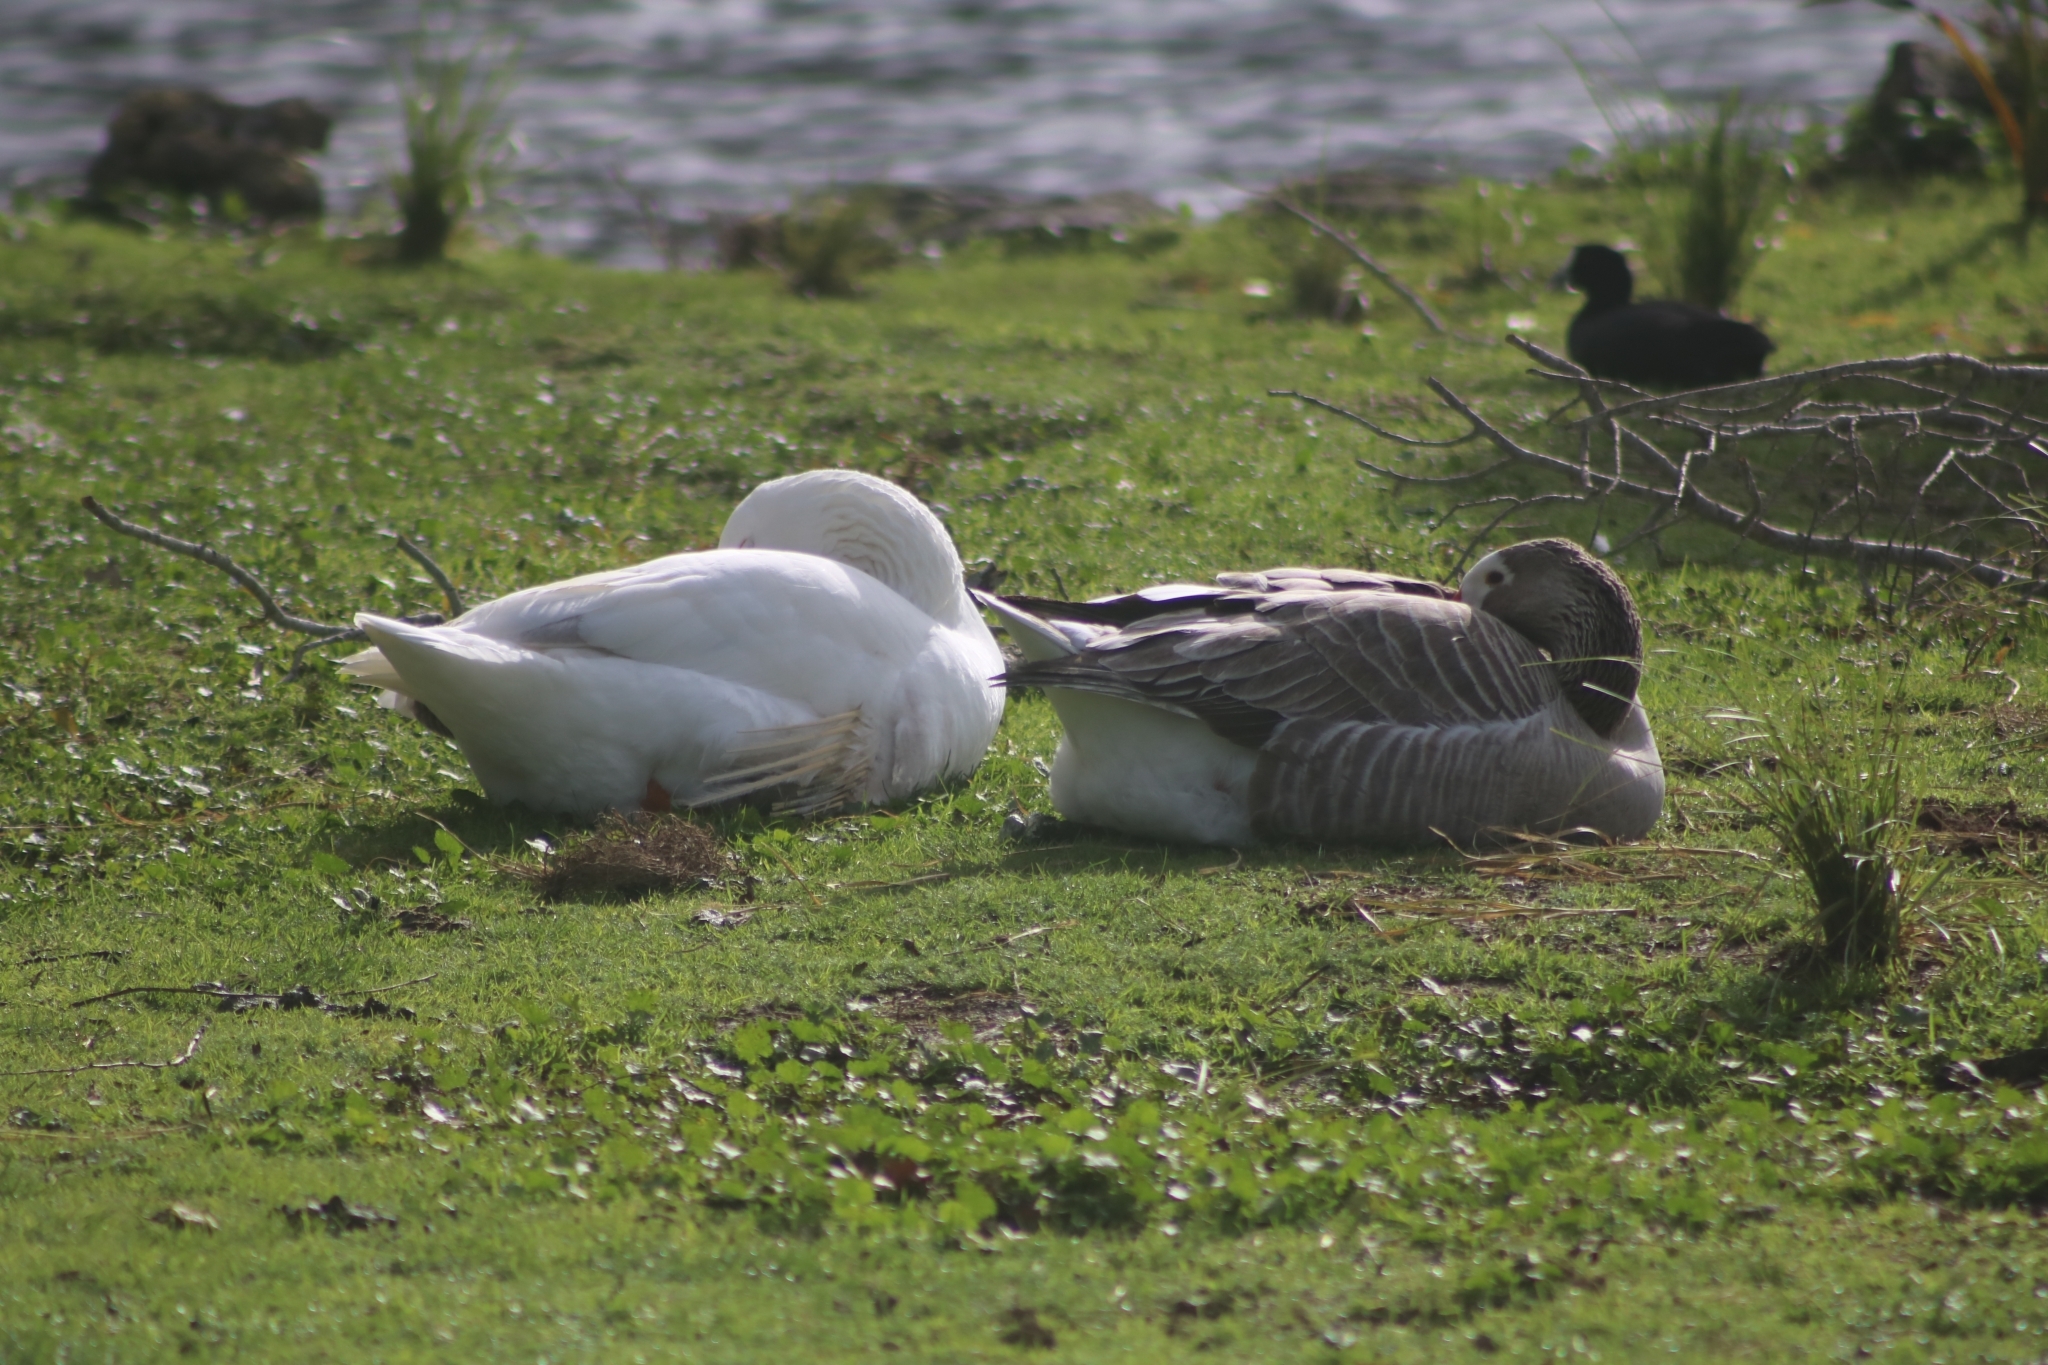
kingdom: Animalia
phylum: Chordata
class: Aves
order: Anseriformes
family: Anatidae
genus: Anser
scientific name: Anser anser
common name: Greylag goose
